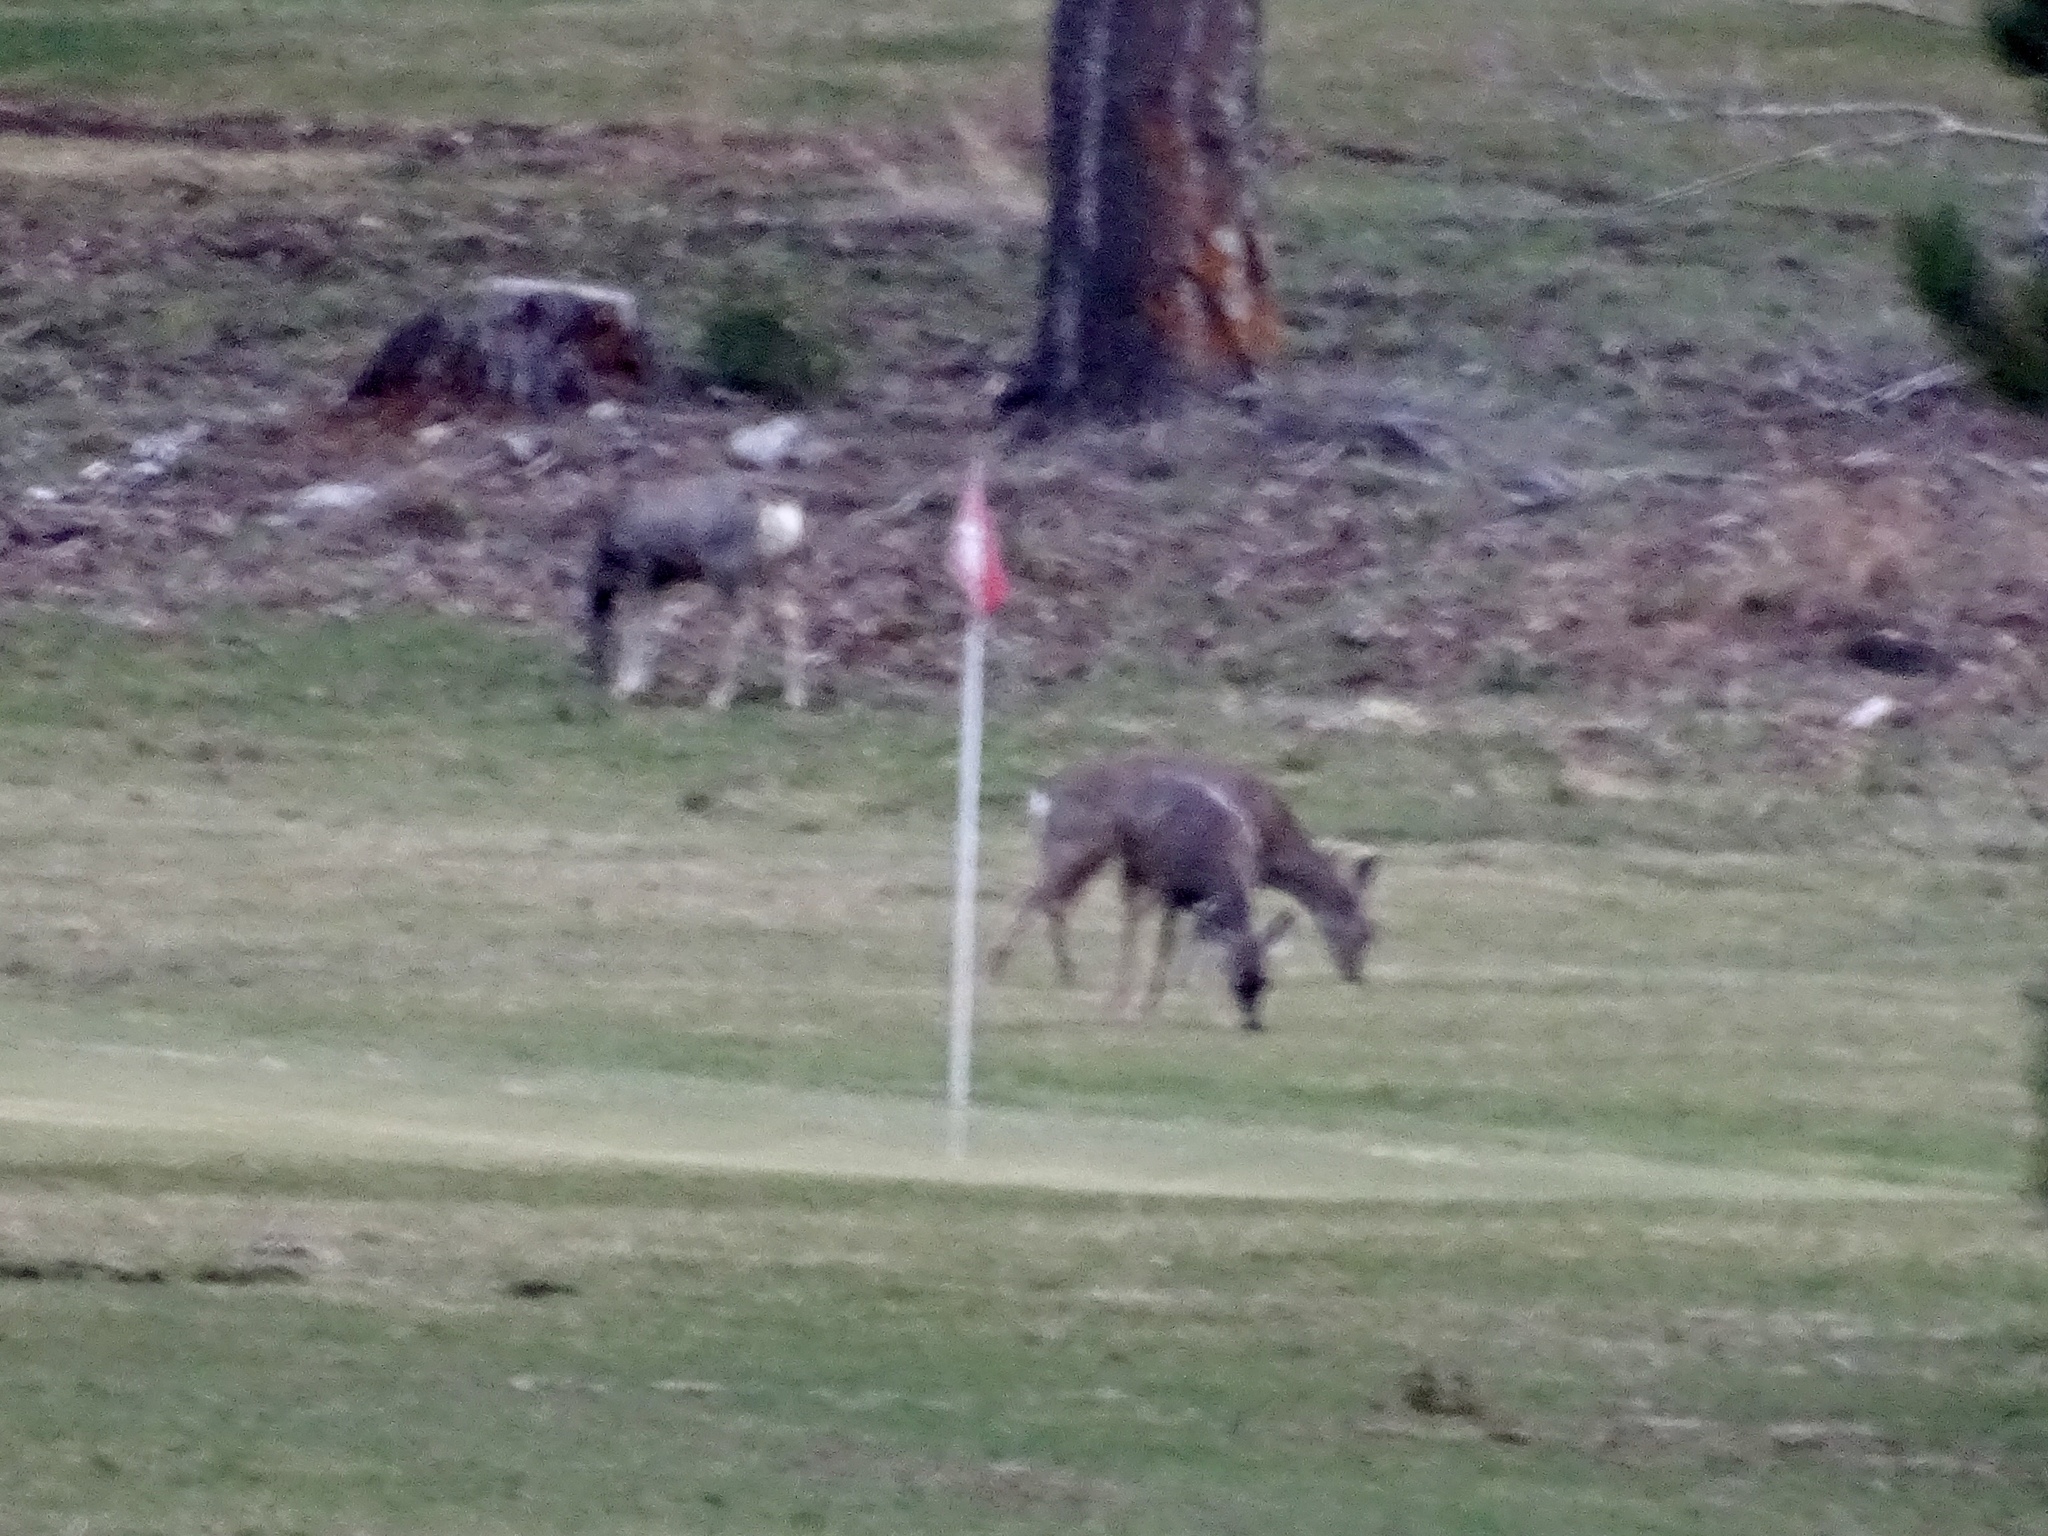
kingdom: Animalia
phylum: Chordata
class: Mammalia
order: Artiodactyla
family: Cervidae
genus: Odocoileus
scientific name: Odocoileus hemionus
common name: Mule deer
